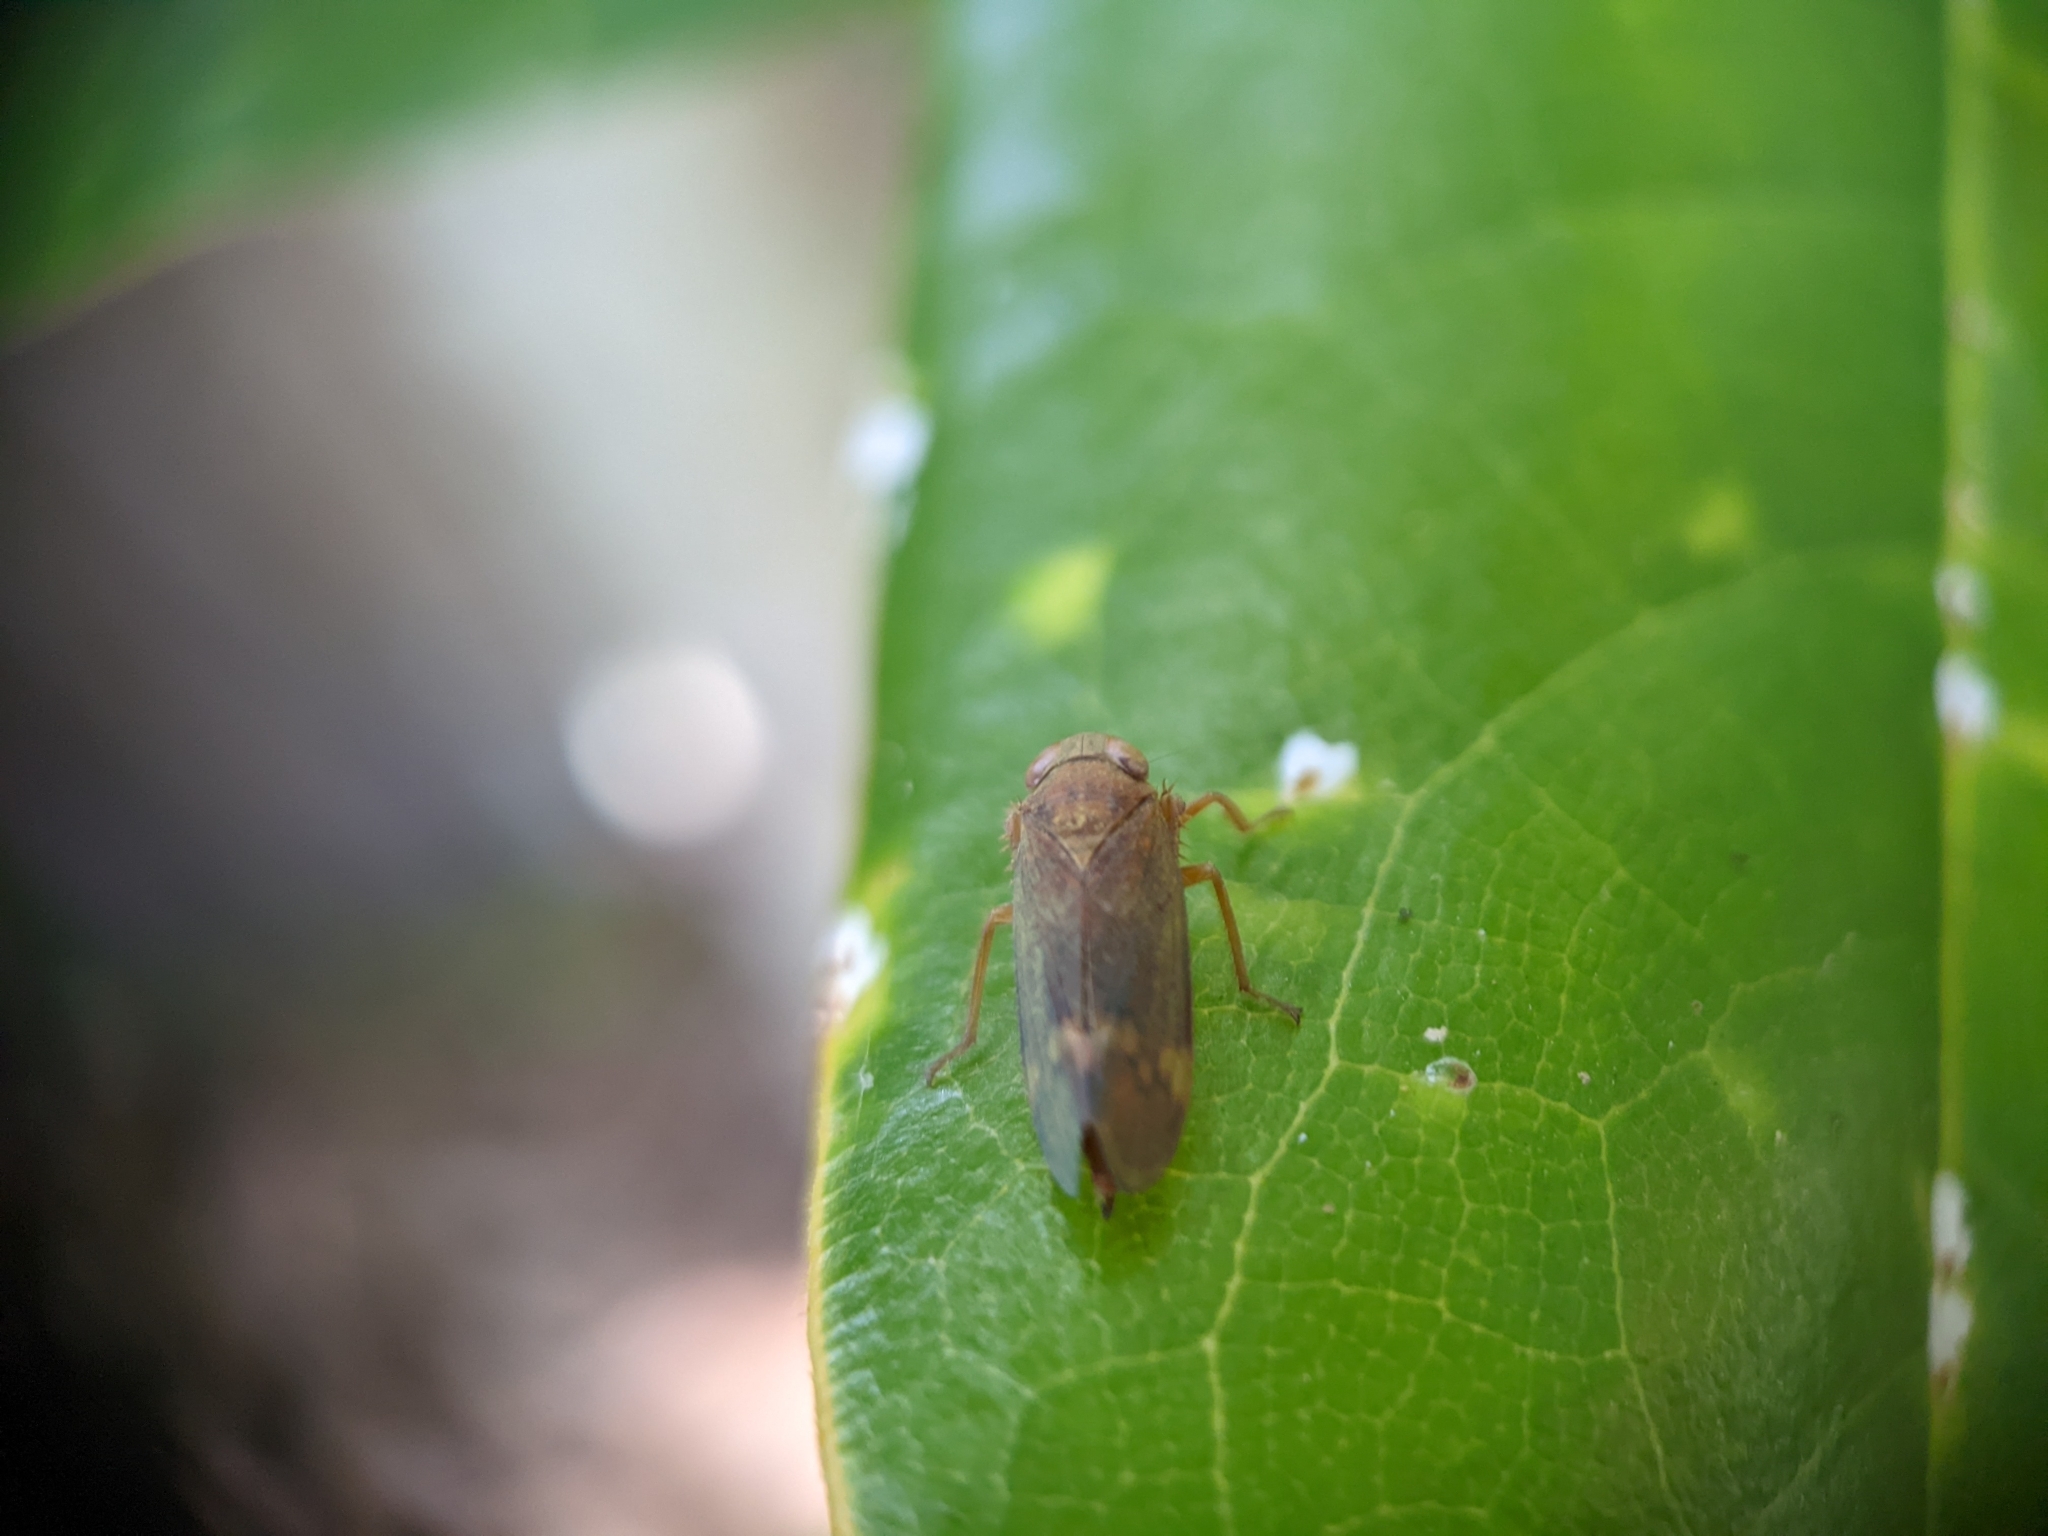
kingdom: Animalia
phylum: Arthropoda
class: Insecta
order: Hemiptera
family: Cicadellidae
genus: Jikradia
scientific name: Jikradia olitoria
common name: Coppery leafhopper
